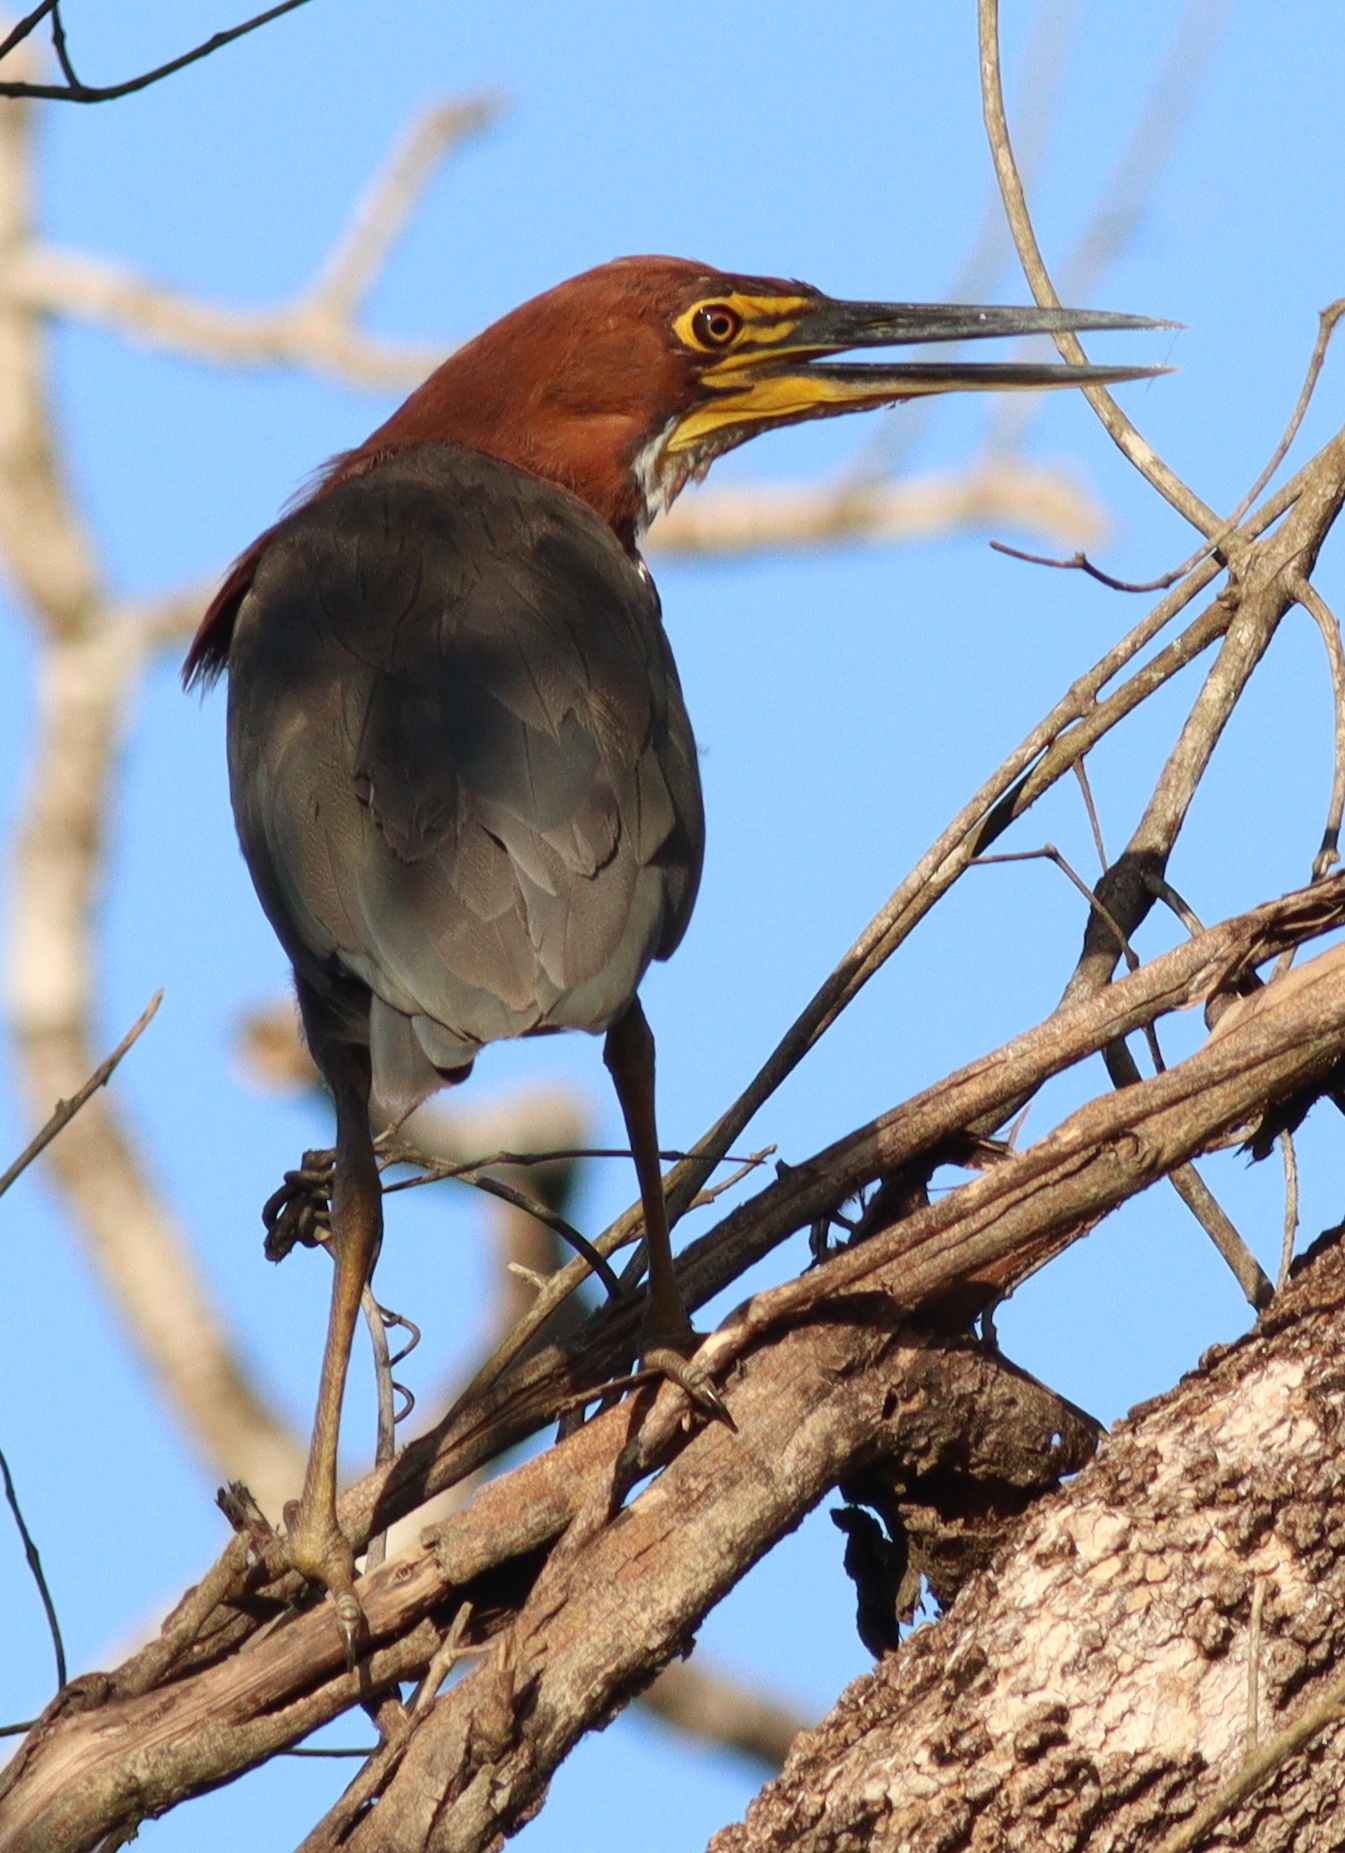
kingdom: Animalia
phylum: Chordata
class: Aves
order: Pelecaniformes
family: Ardeidae
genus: Tigrisoma
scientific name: Tigrisoma lineatum
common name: Rufescent tiger-heron
